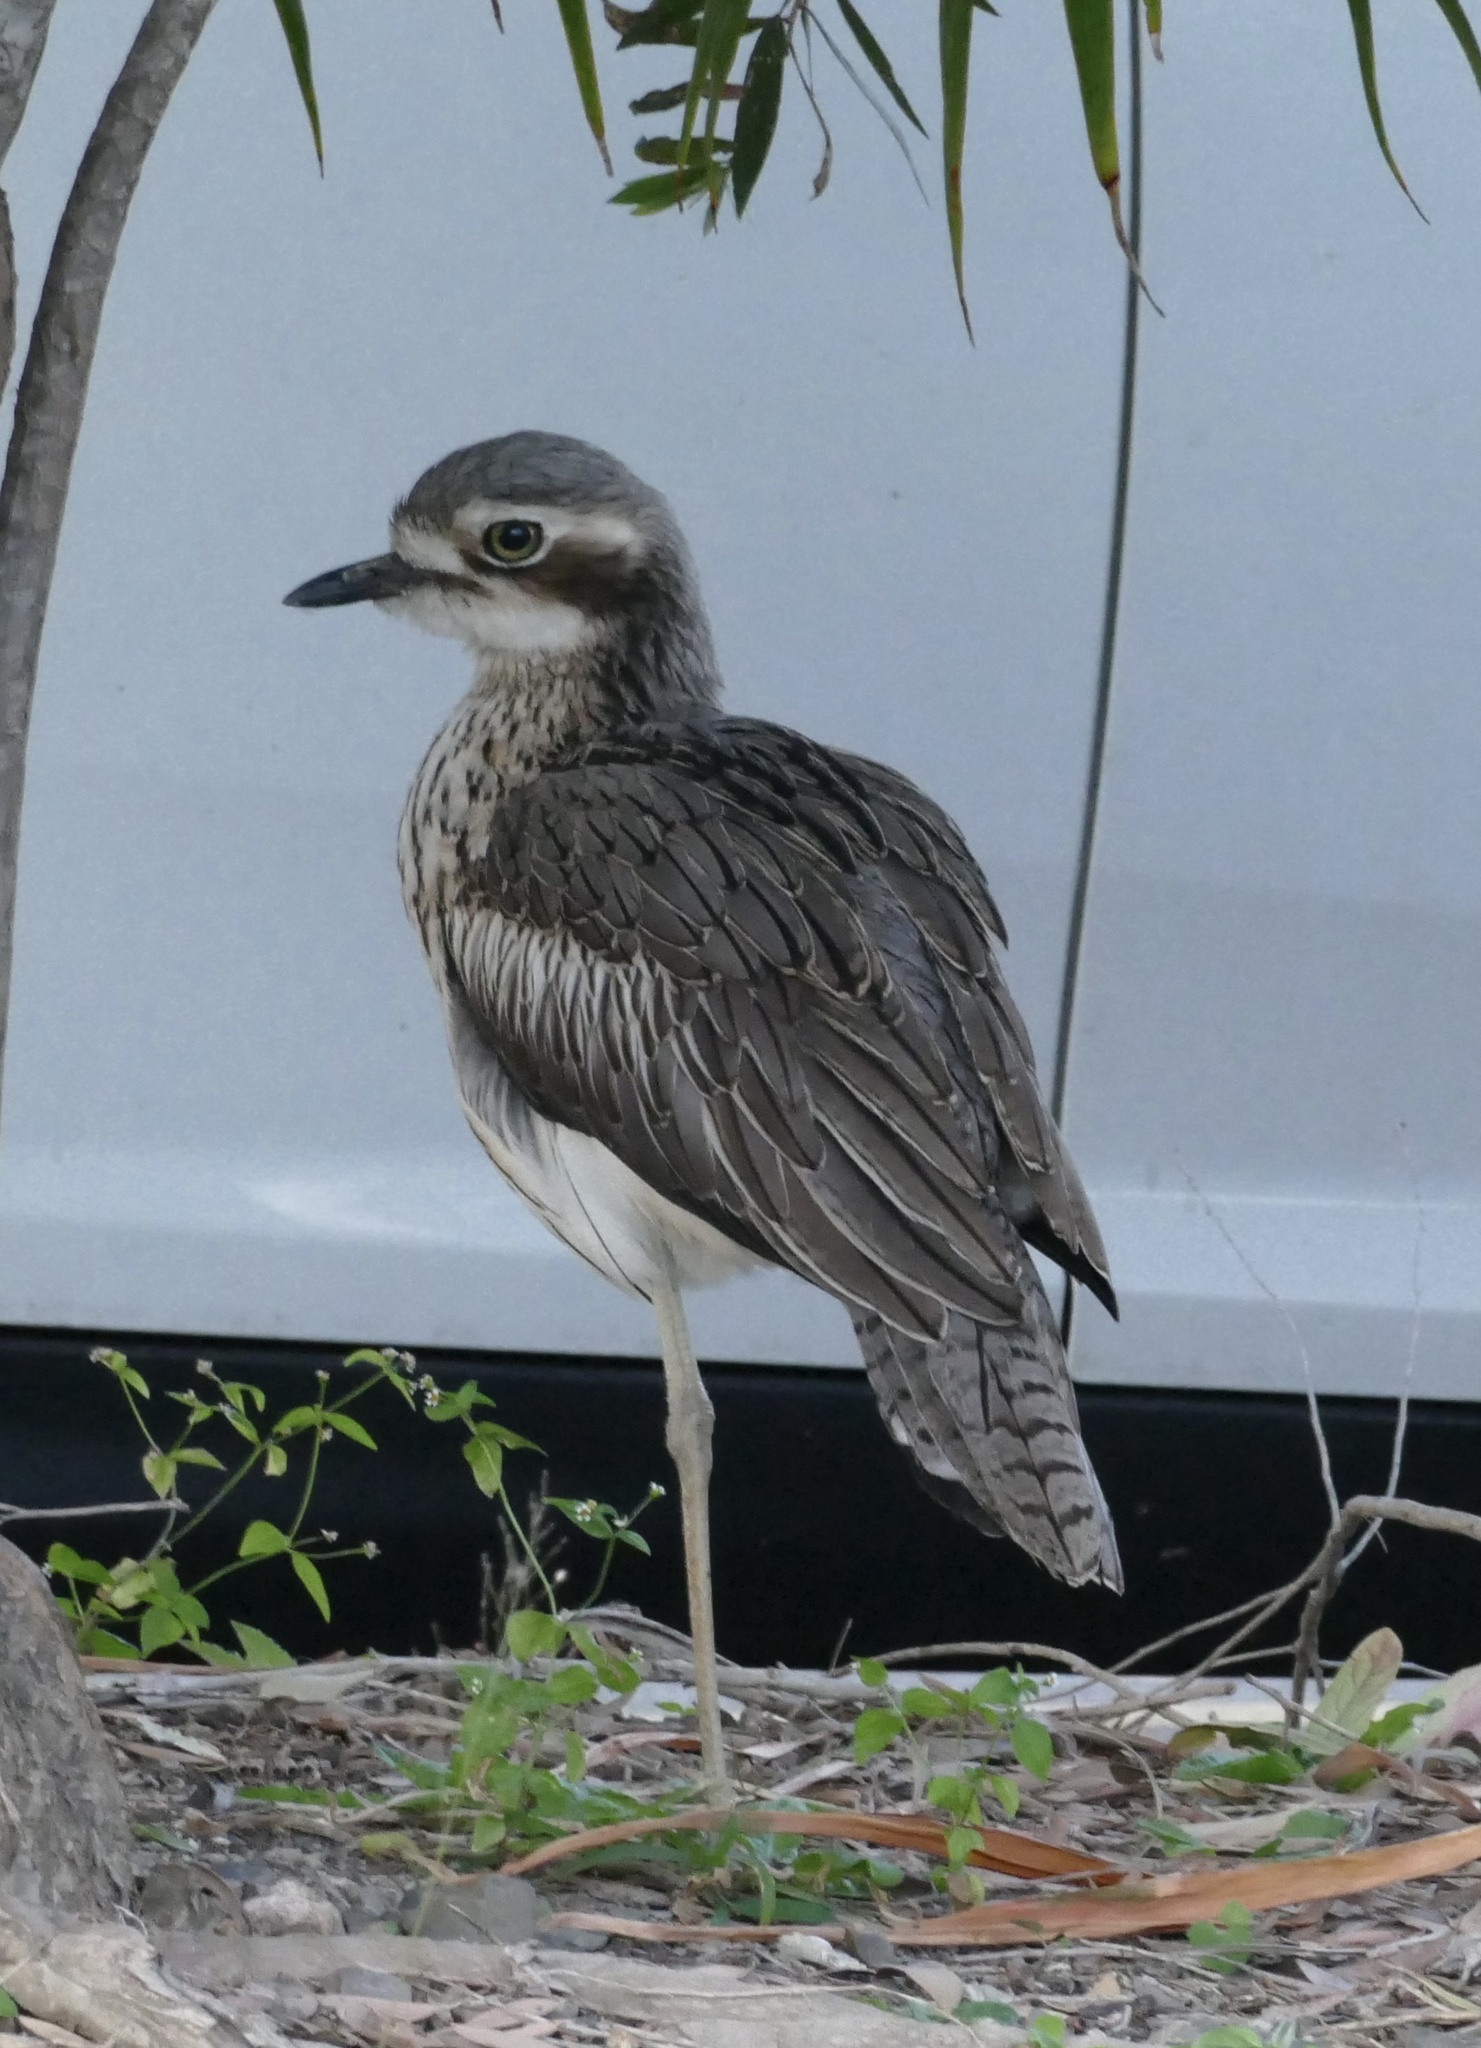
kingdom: Animalia
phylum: Chordata
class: Aves
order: Charadriiformes
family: Burhinidae
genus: Burhinus
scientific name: Burhinus grallarius
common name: Bush stone-curlew
